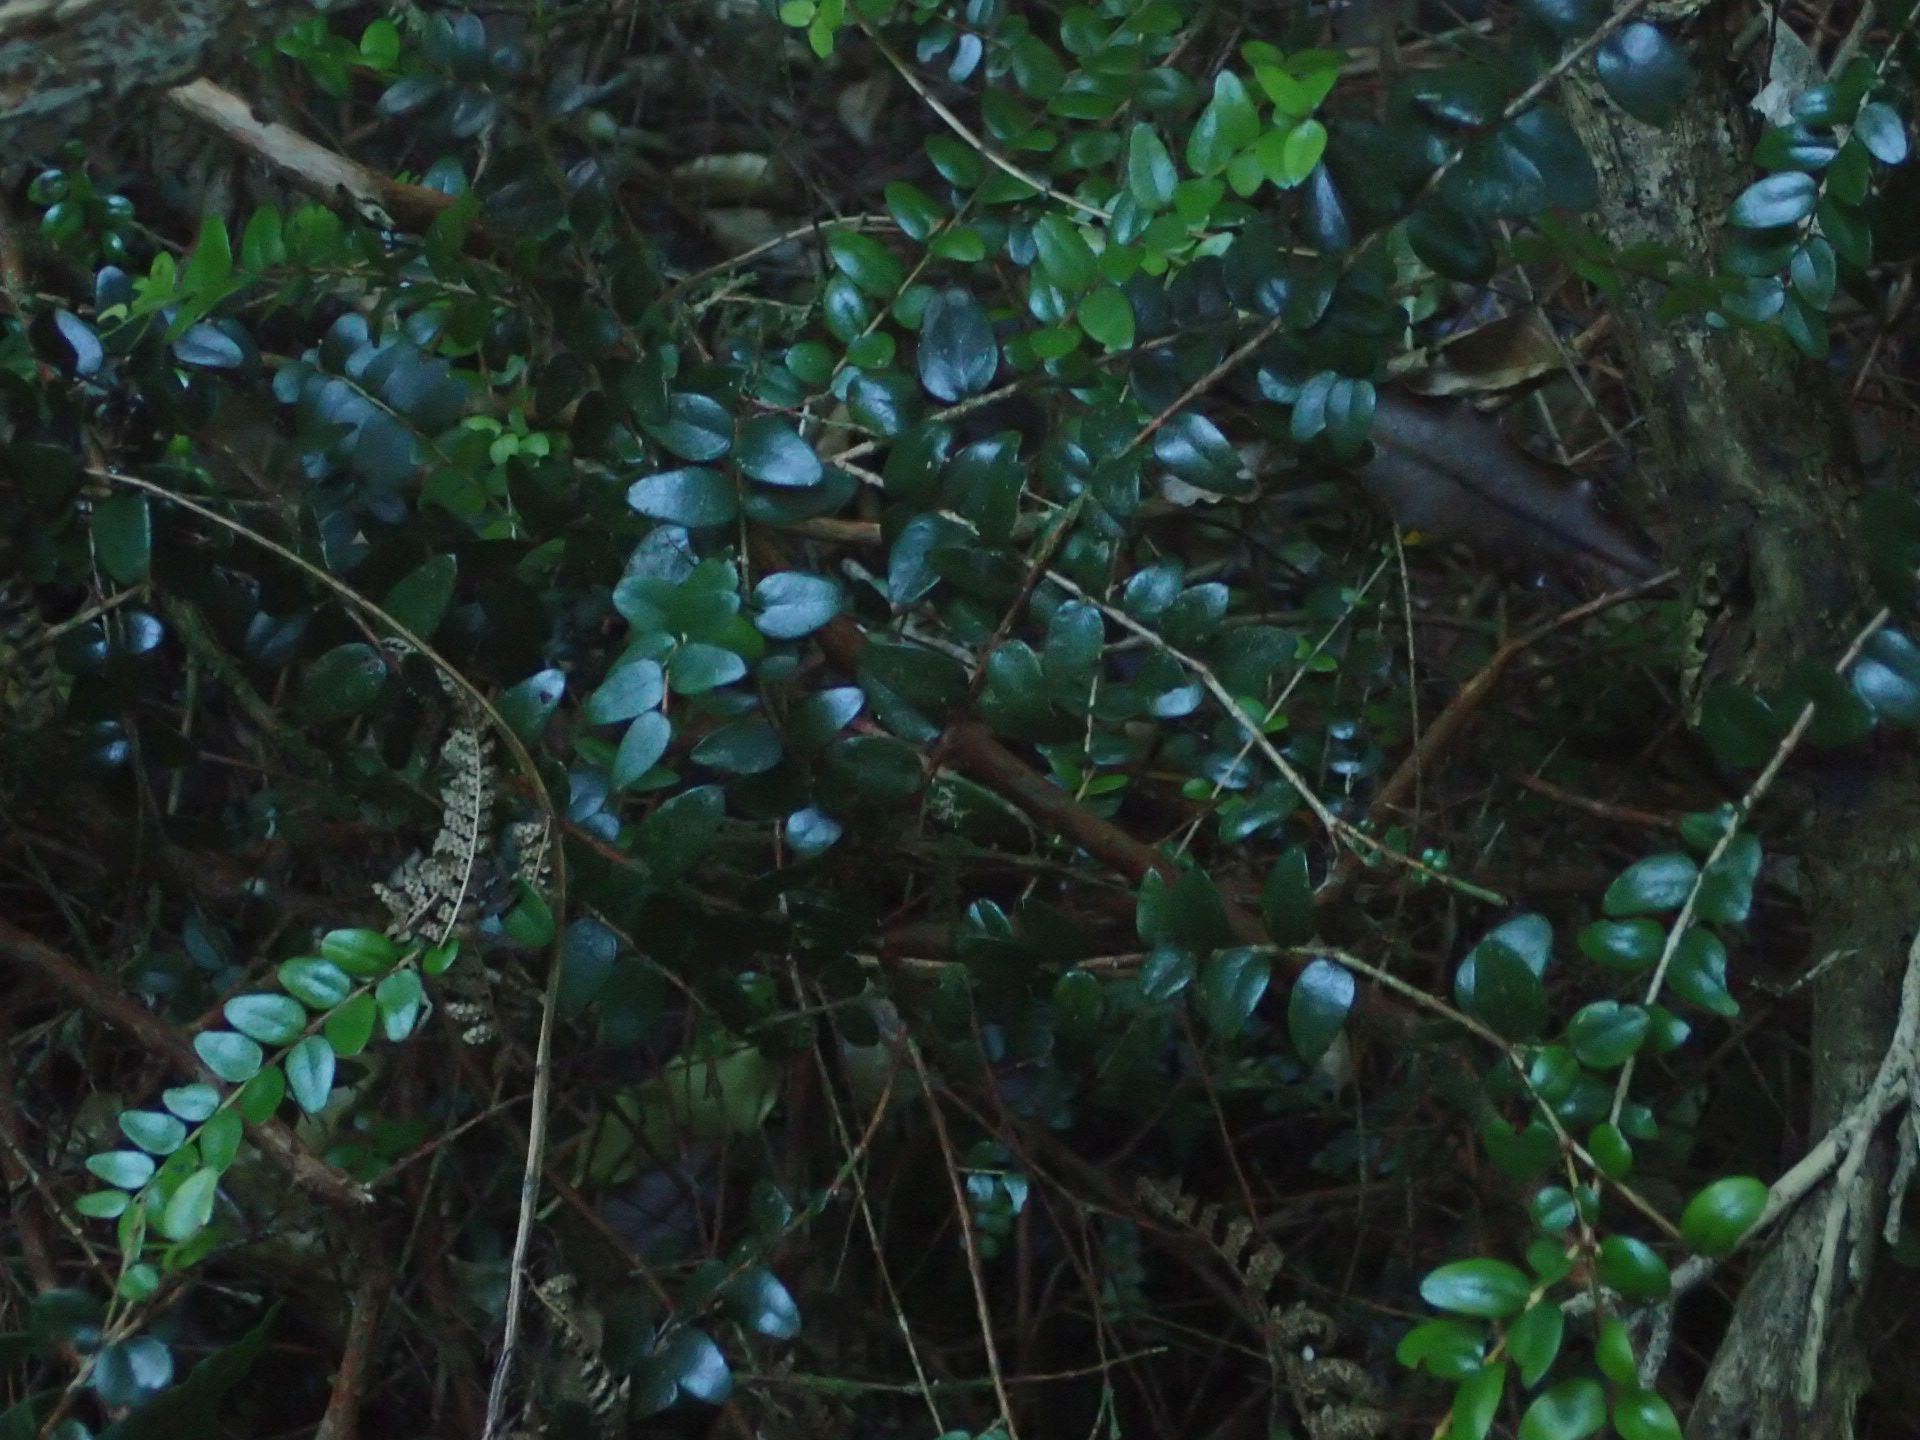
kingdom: Plantae
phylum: Tracheophyta
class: Magnoliopsida
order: Myrtales
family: Myrtaceae
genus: Metrosideros
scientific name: Metrosideros diffusa
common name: Small ratavine
